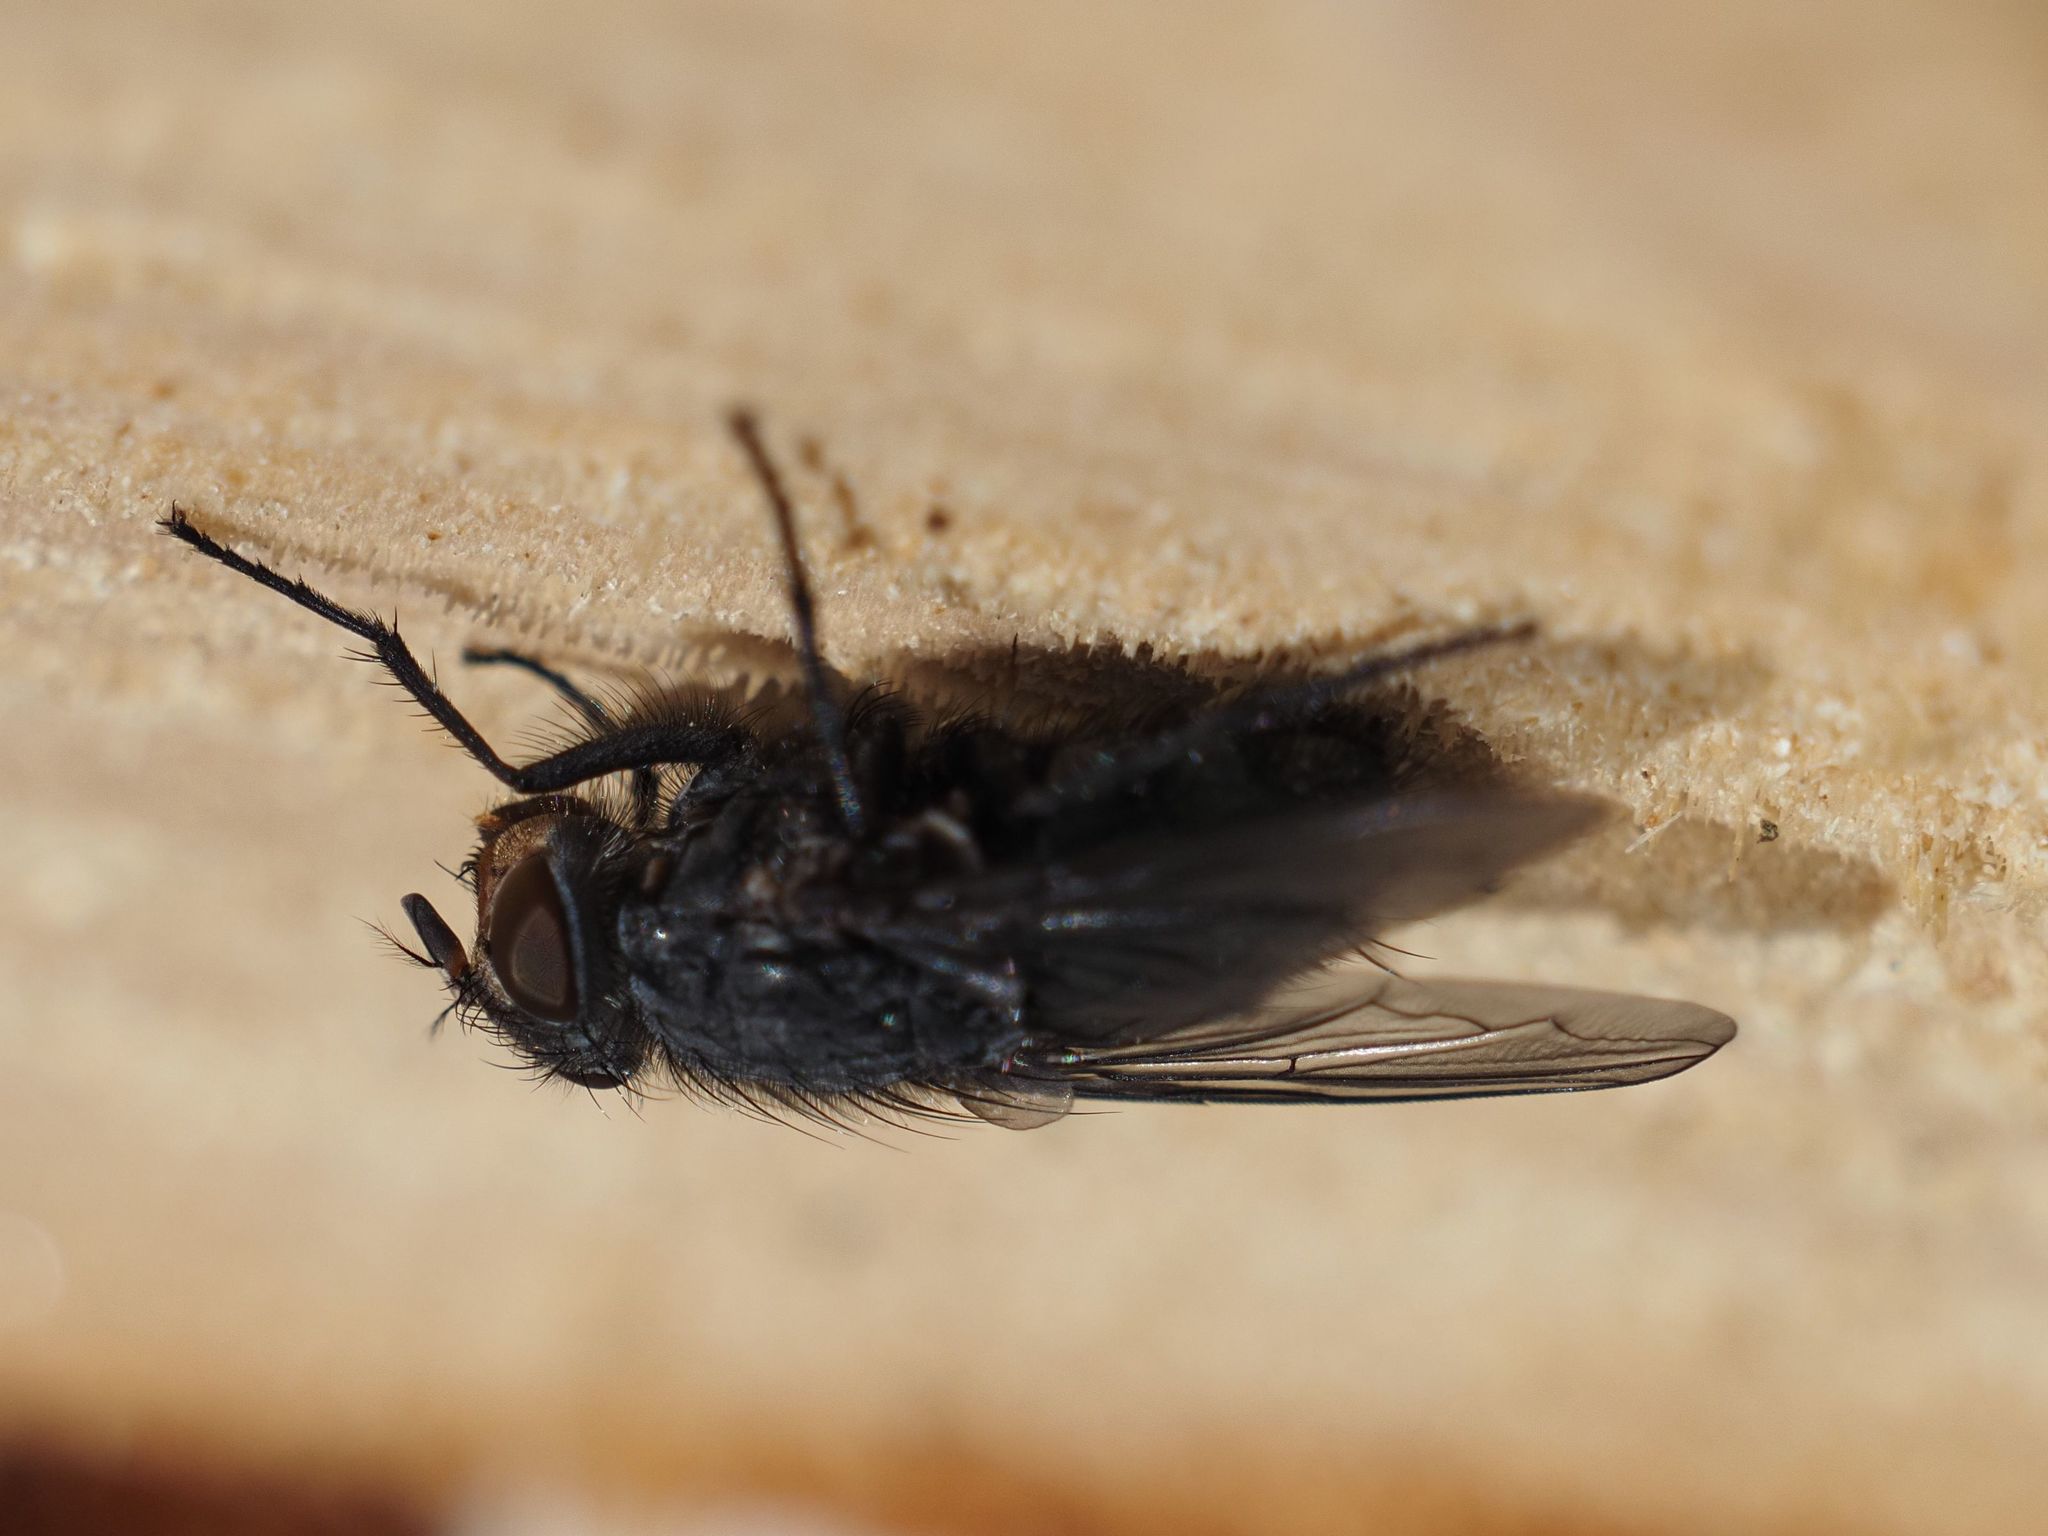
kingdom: Animalia
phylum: Arthropoda
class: Insecta
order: Diptera
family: Calliphoridae
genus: Calliphora
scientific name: Calliphora vicina
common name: Common blow flie
